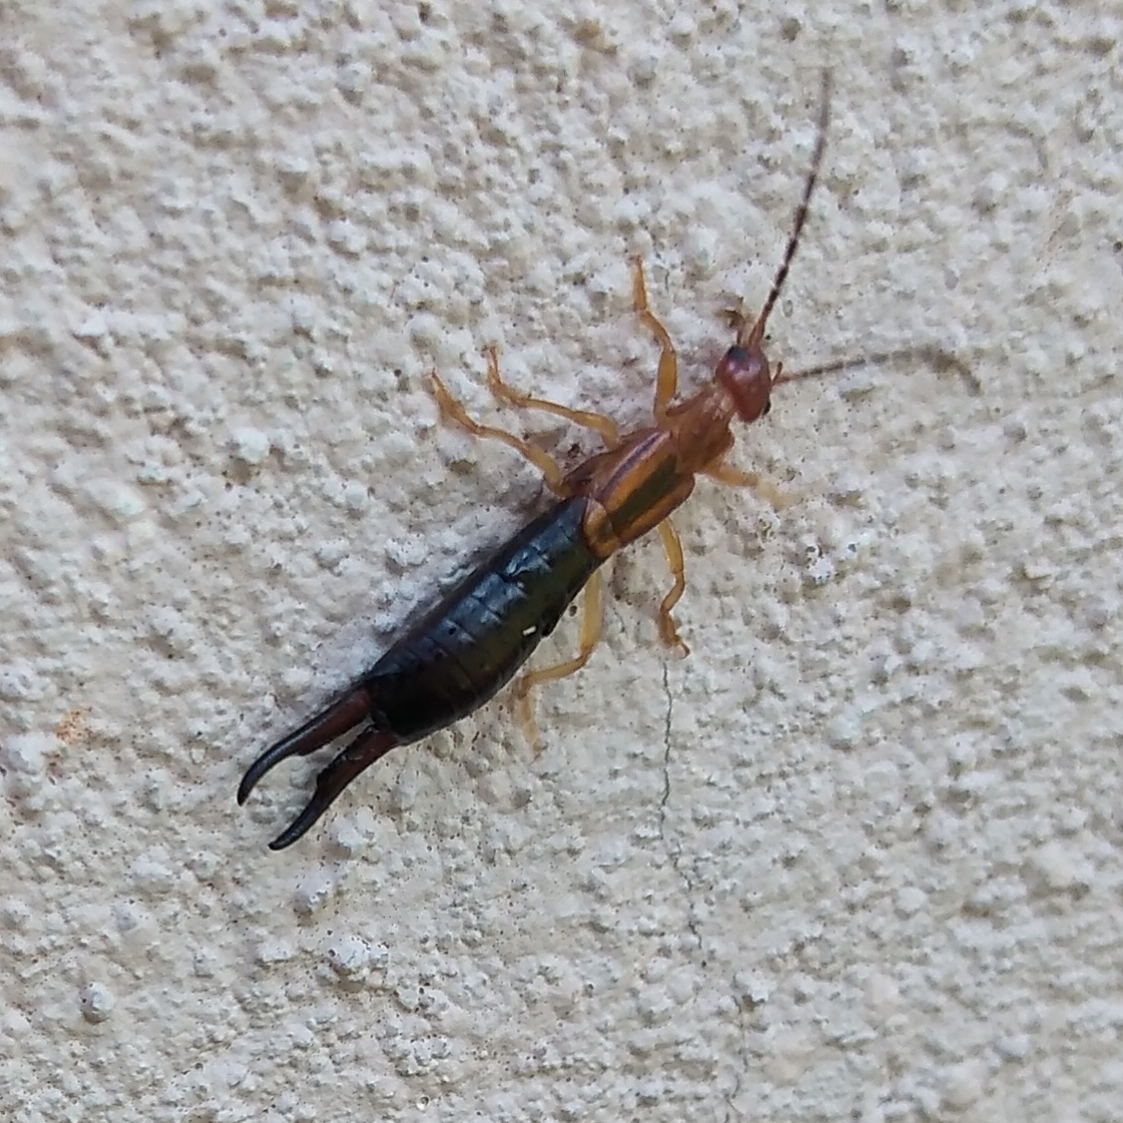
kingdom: Animalia
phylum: Arthropoda
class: Insecta
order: Dermaptera
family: Forficulidae
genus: Forficula
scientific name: Forficula senegalensis
